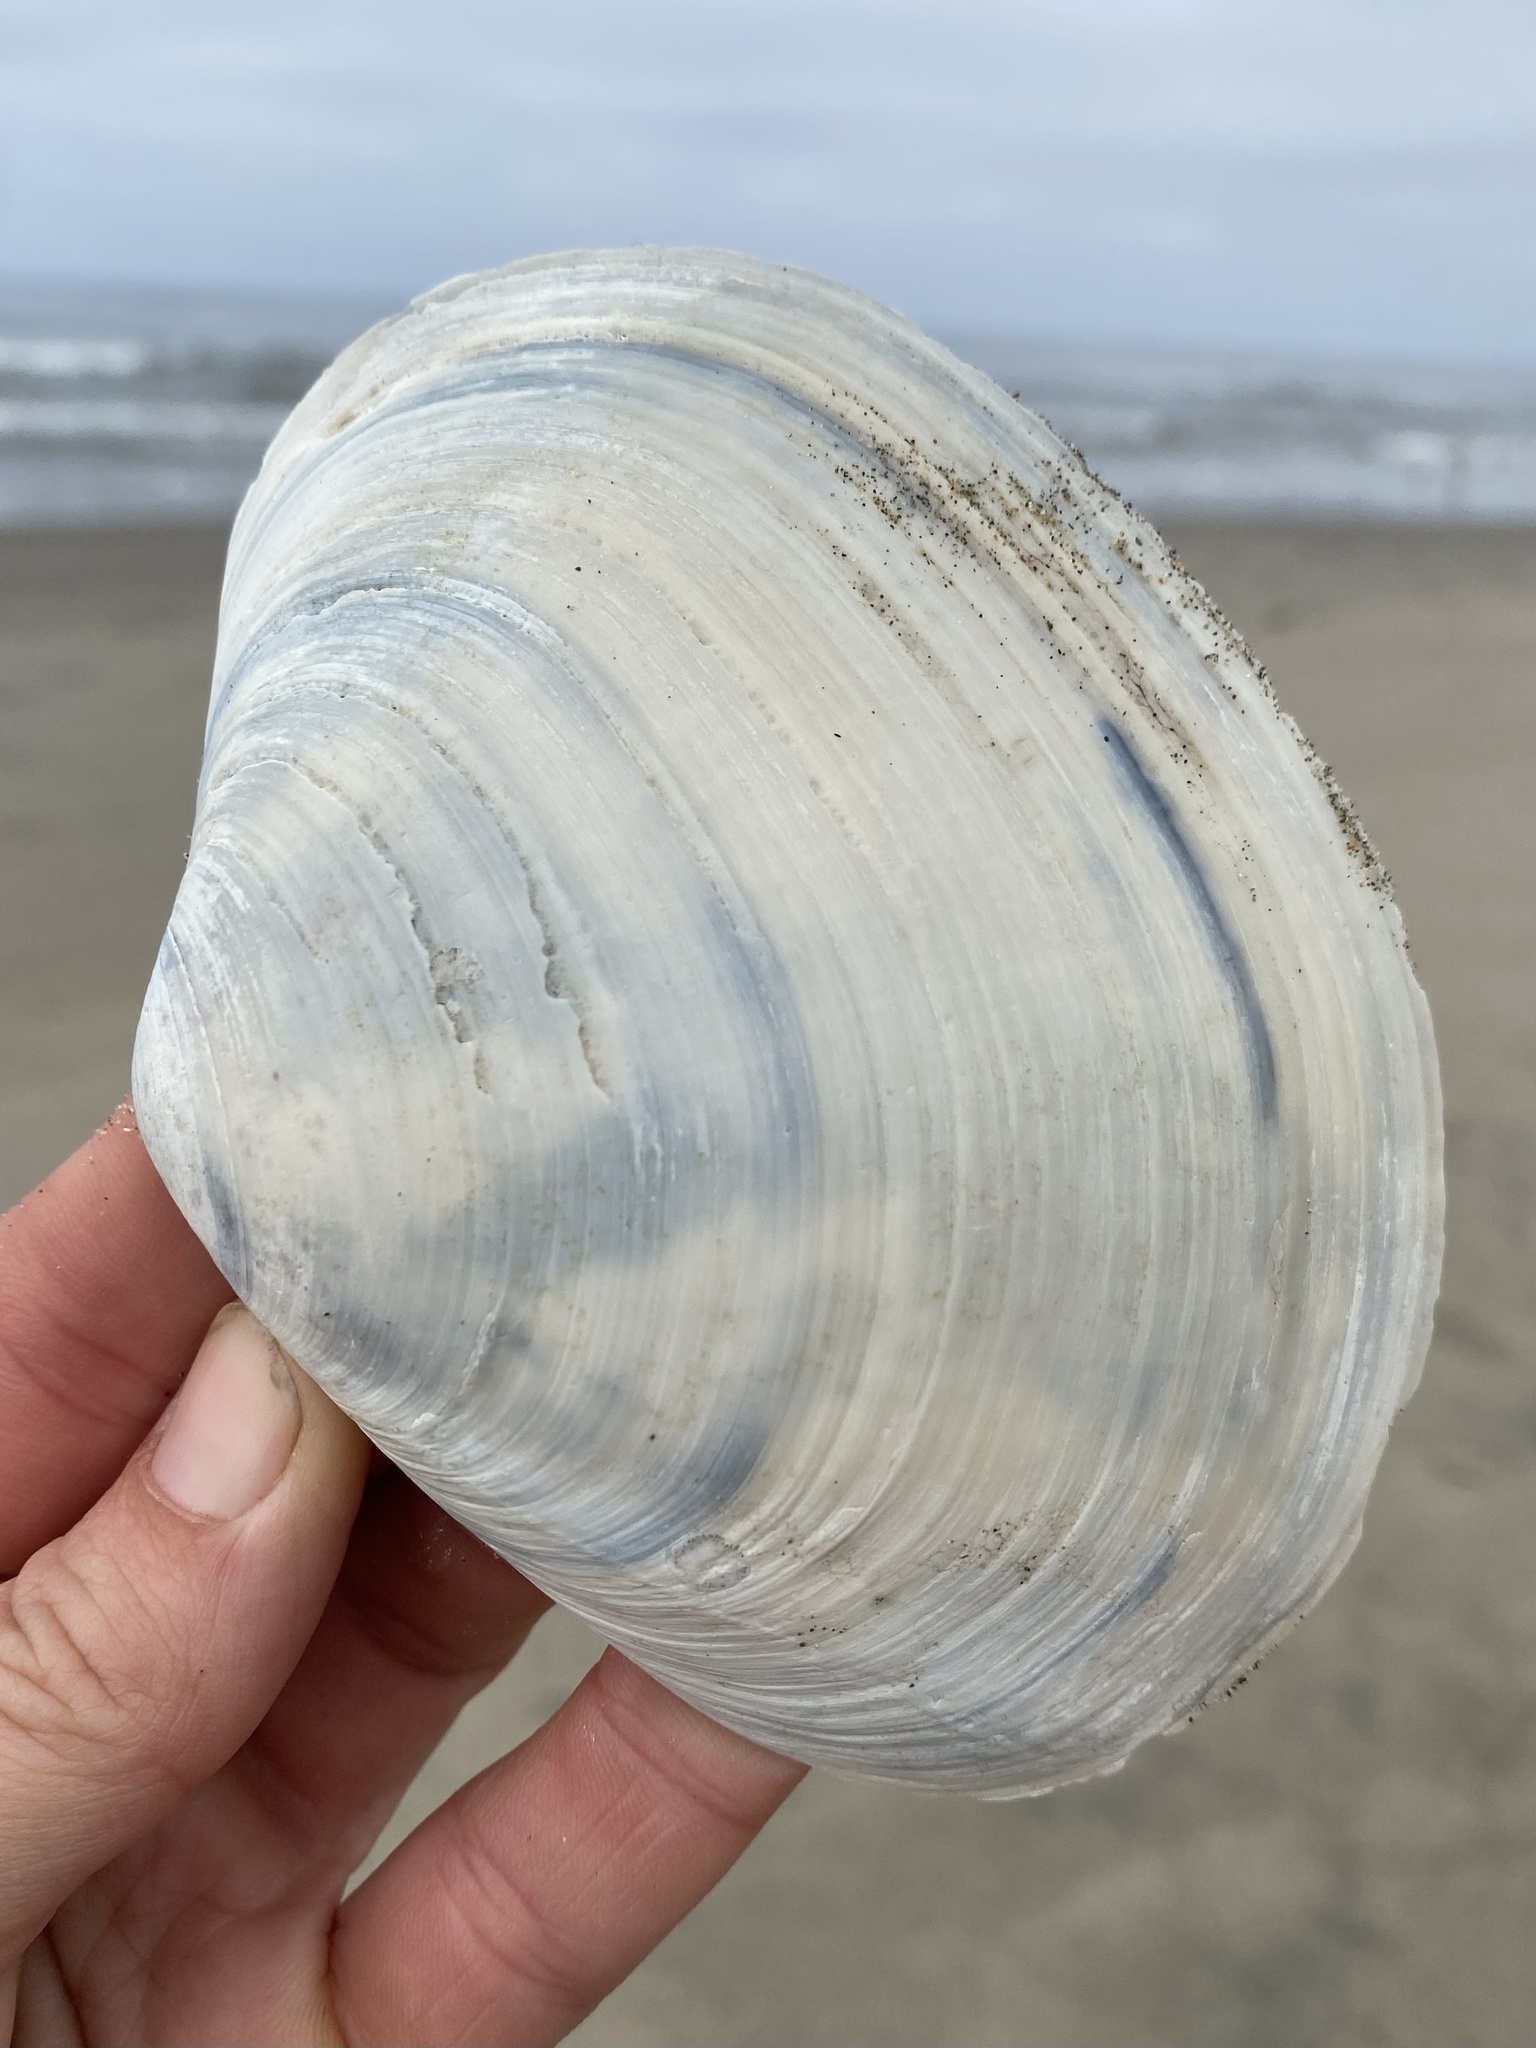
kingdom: Animalia
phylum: Mollusca
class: Bivalvia
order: Venerida
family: Mactridae
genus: Mactromeris
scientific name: Mactromeris catilliformis
